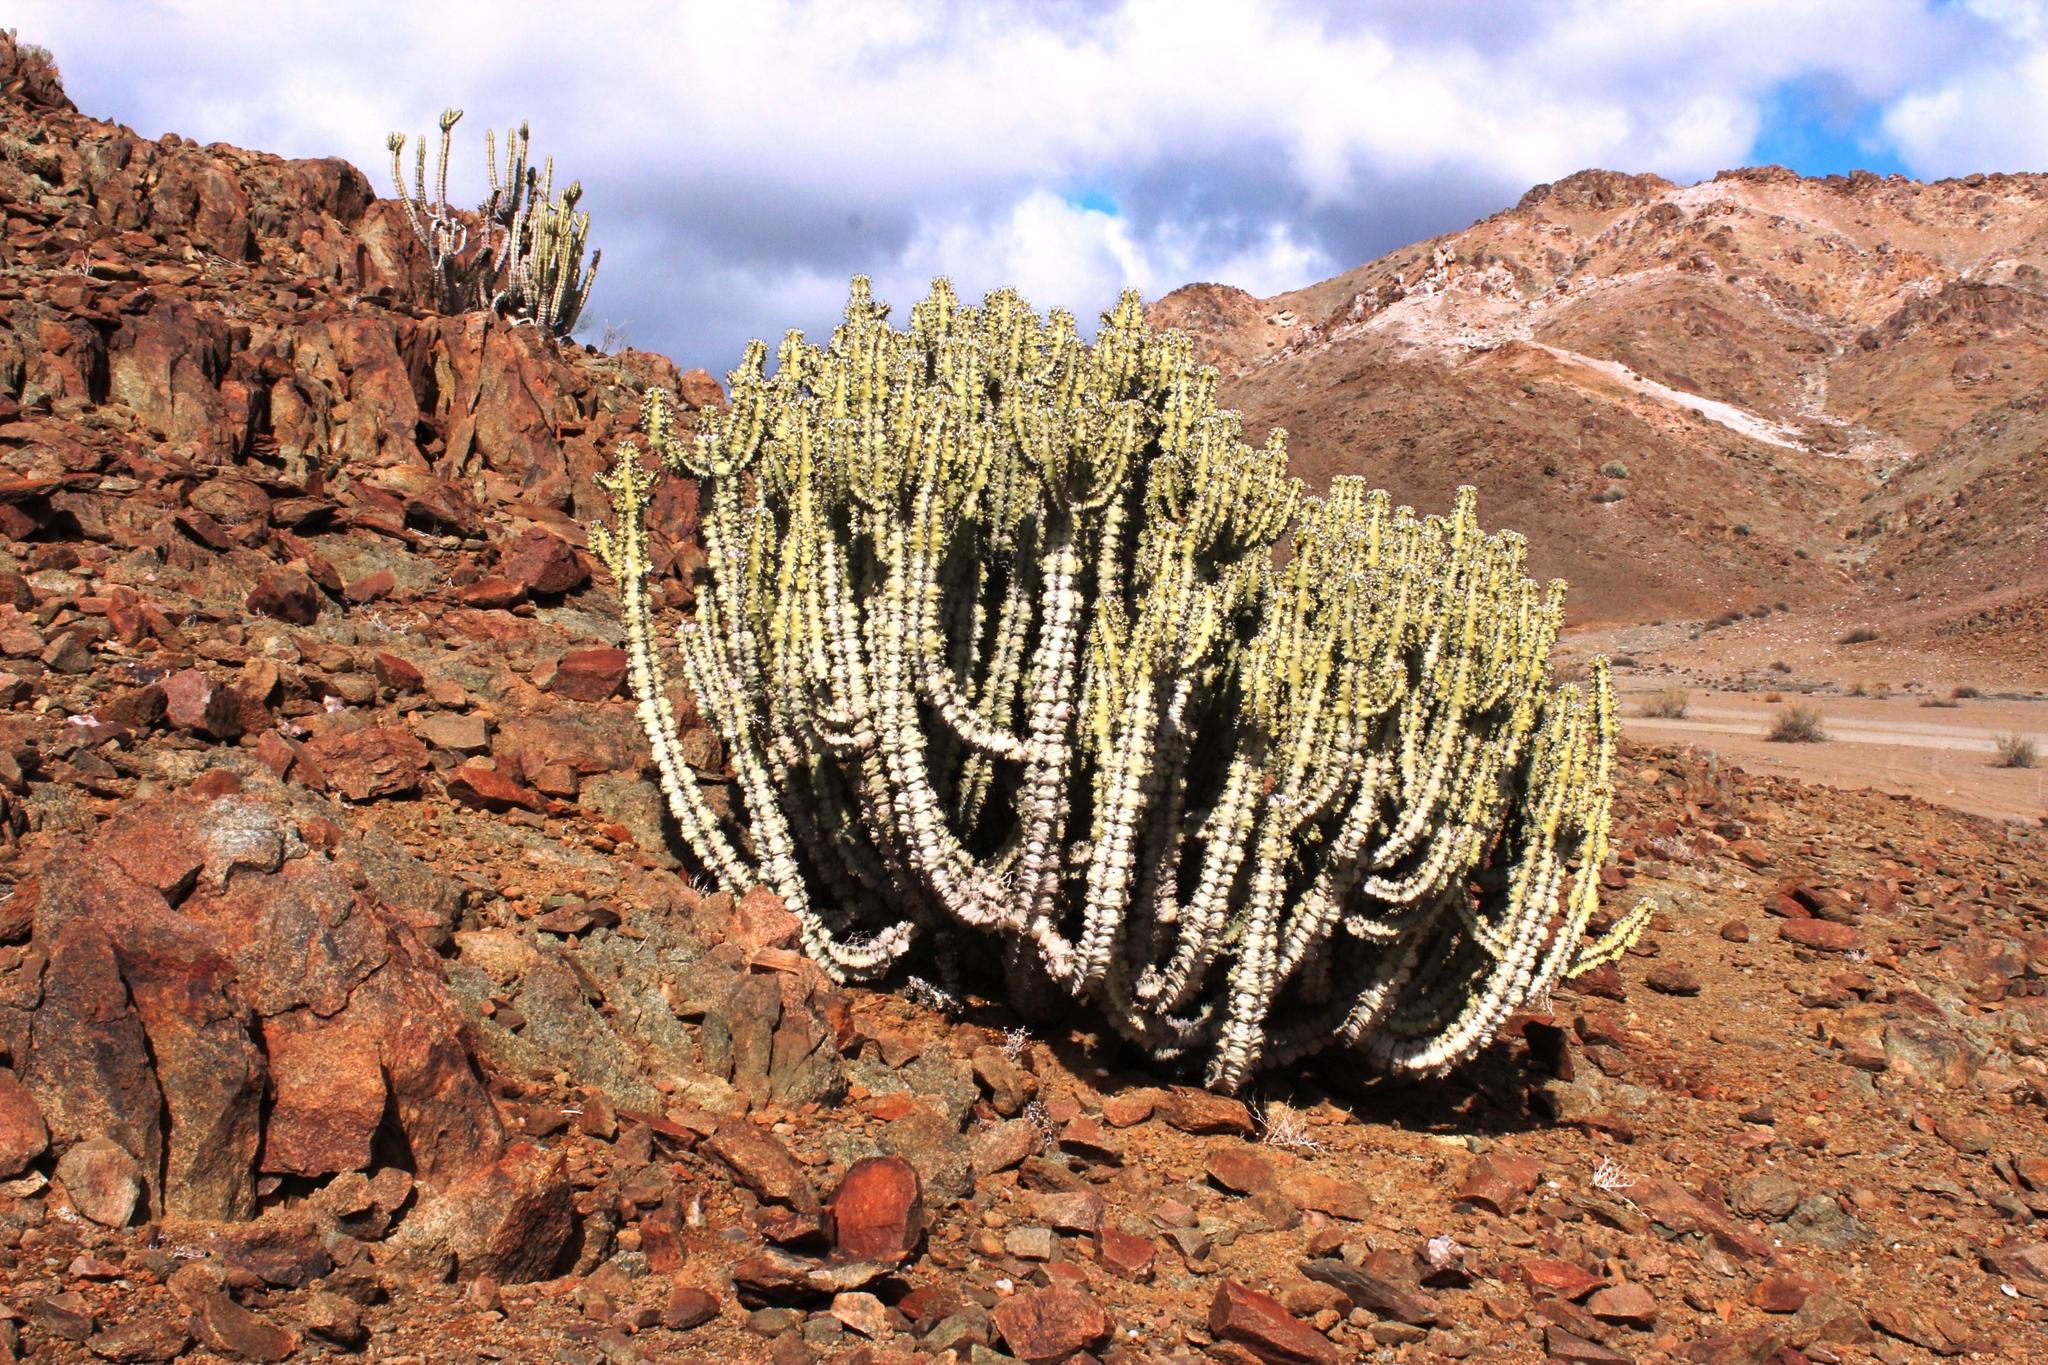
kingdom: Plantae
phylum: Tracheophyta
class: Magnoliopsida
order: Malpighiales
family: Euphorbiaceae
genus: Euphorbia
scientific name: Euphorbia virosa
